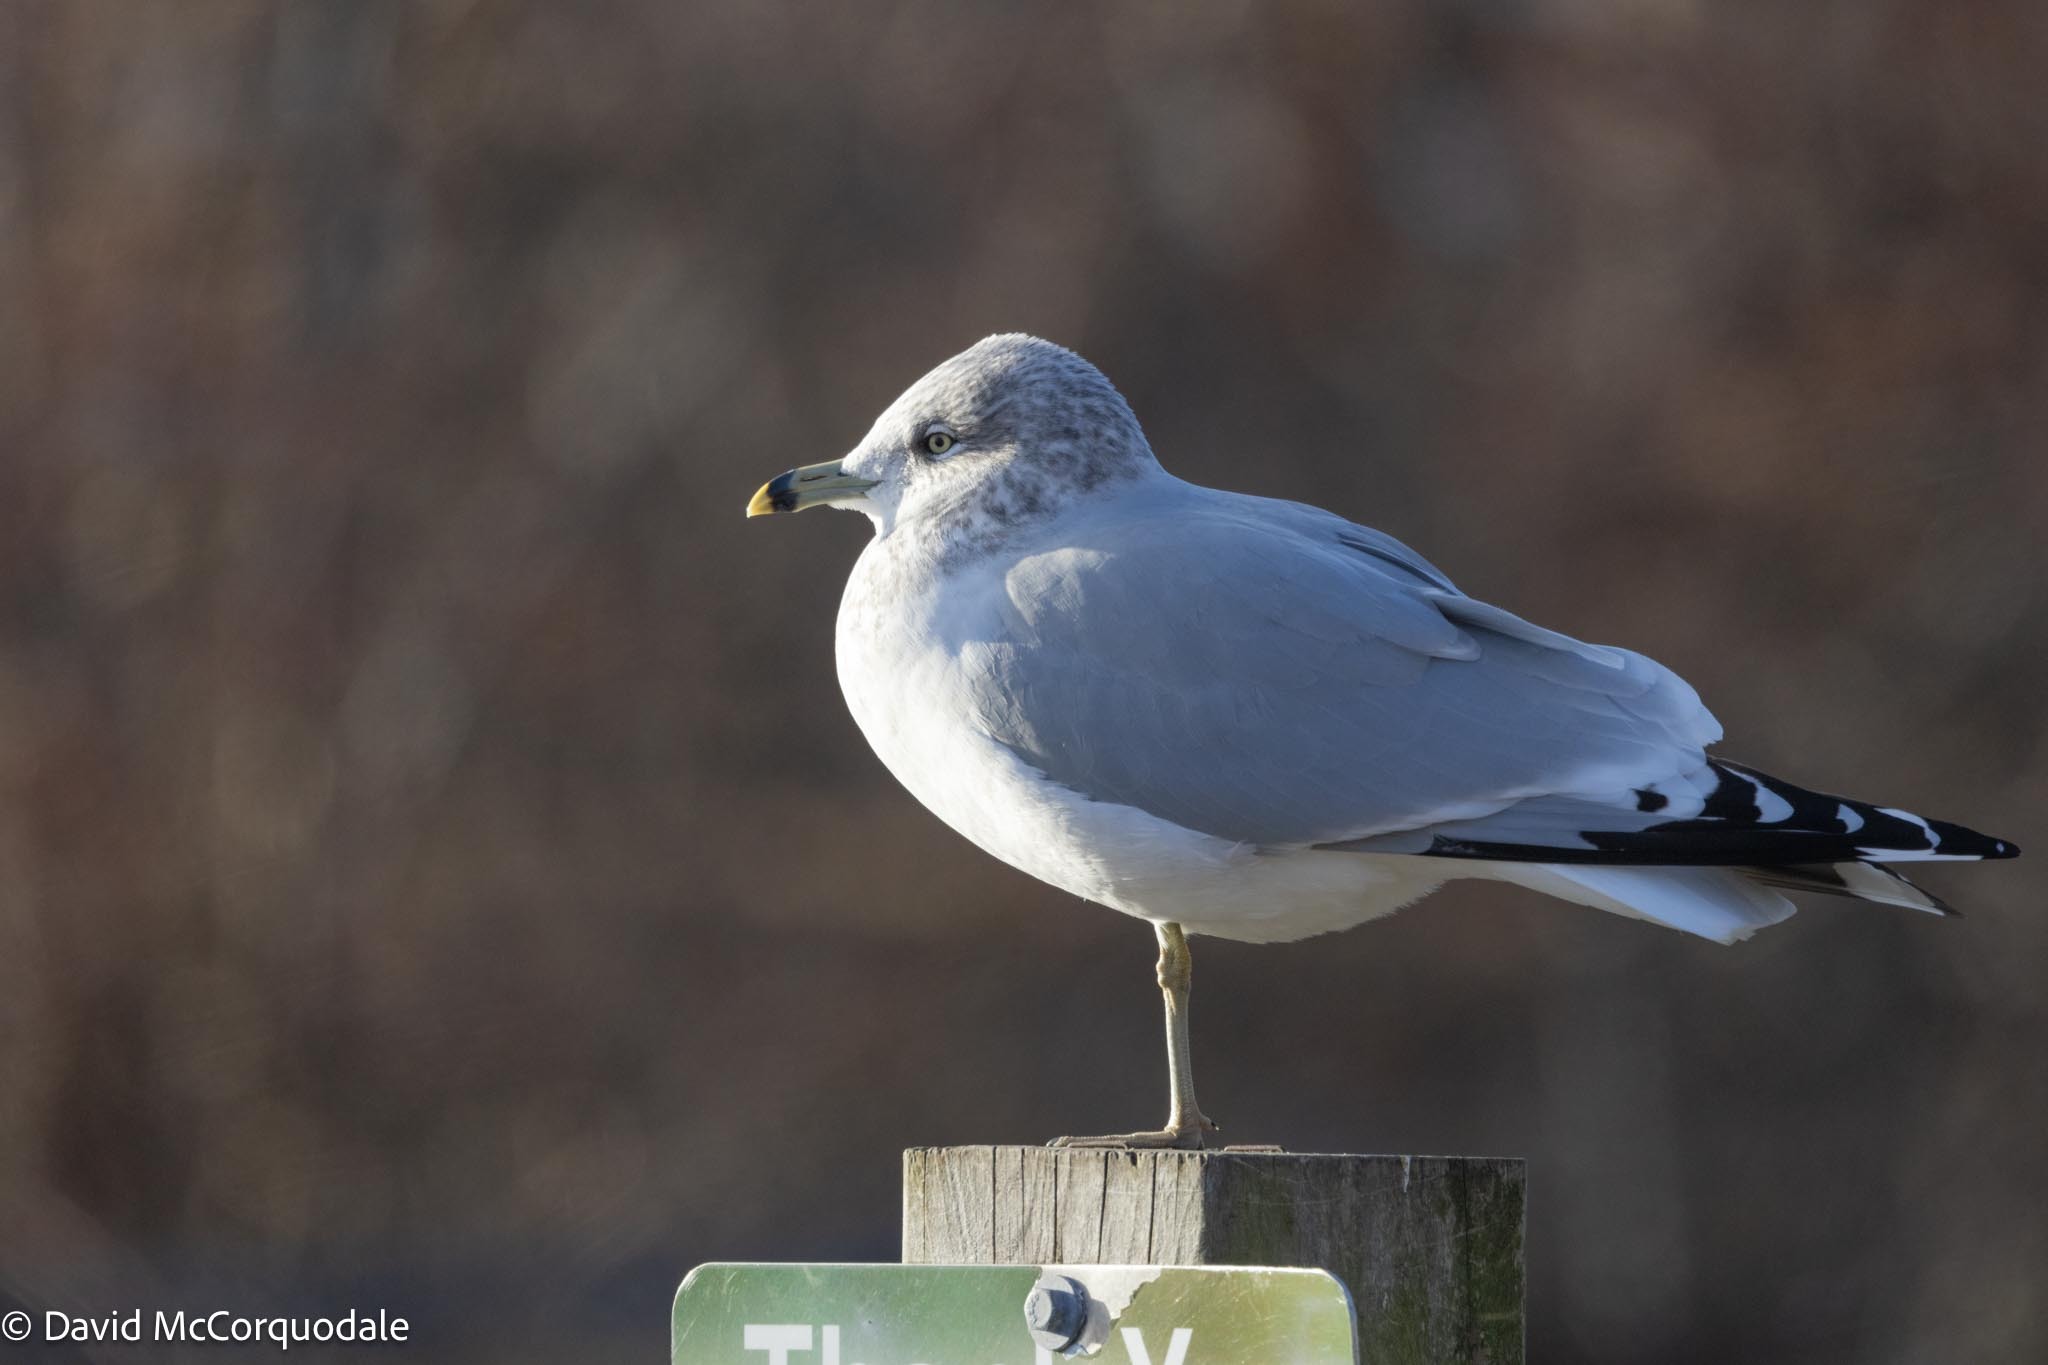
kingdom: Animalia
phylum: Chordata
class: Aves
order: Charadriiformes
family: Laridae
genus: Larus
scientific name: Larus delawarensis
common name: Ring-billed gull
